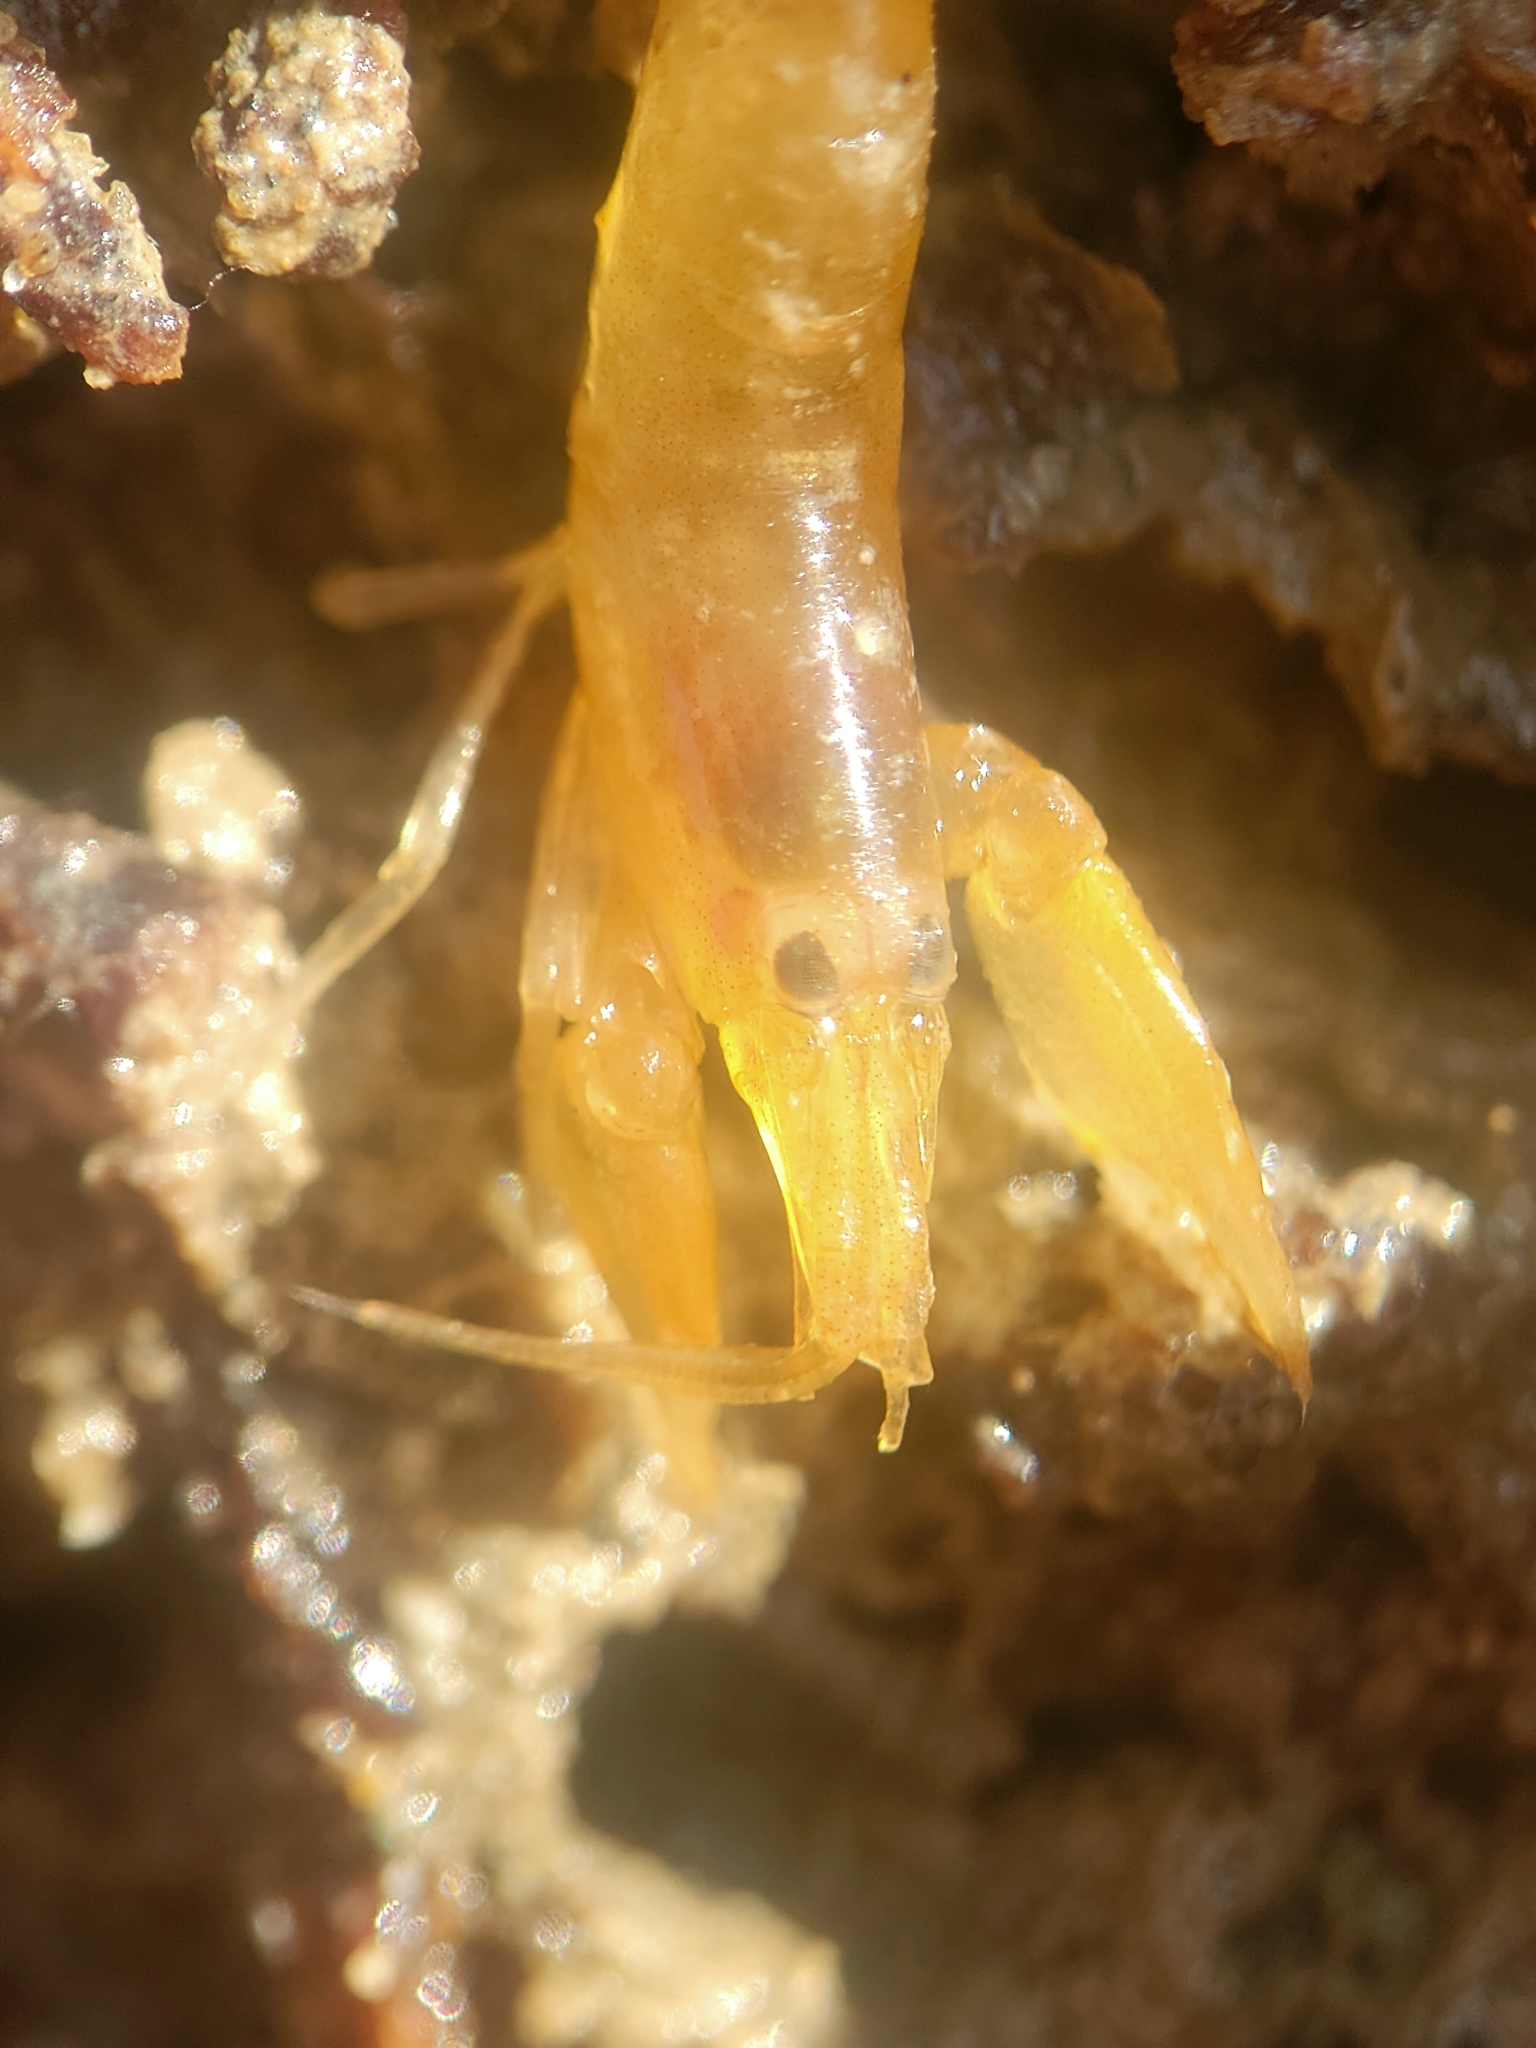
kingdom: Animalia
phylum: Arthropoda
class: Malacostraca
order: Decapoda
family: Alpheidae
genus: Betaeus
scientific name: Betaeus setosus
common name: Fuzzy hooded shrimp
